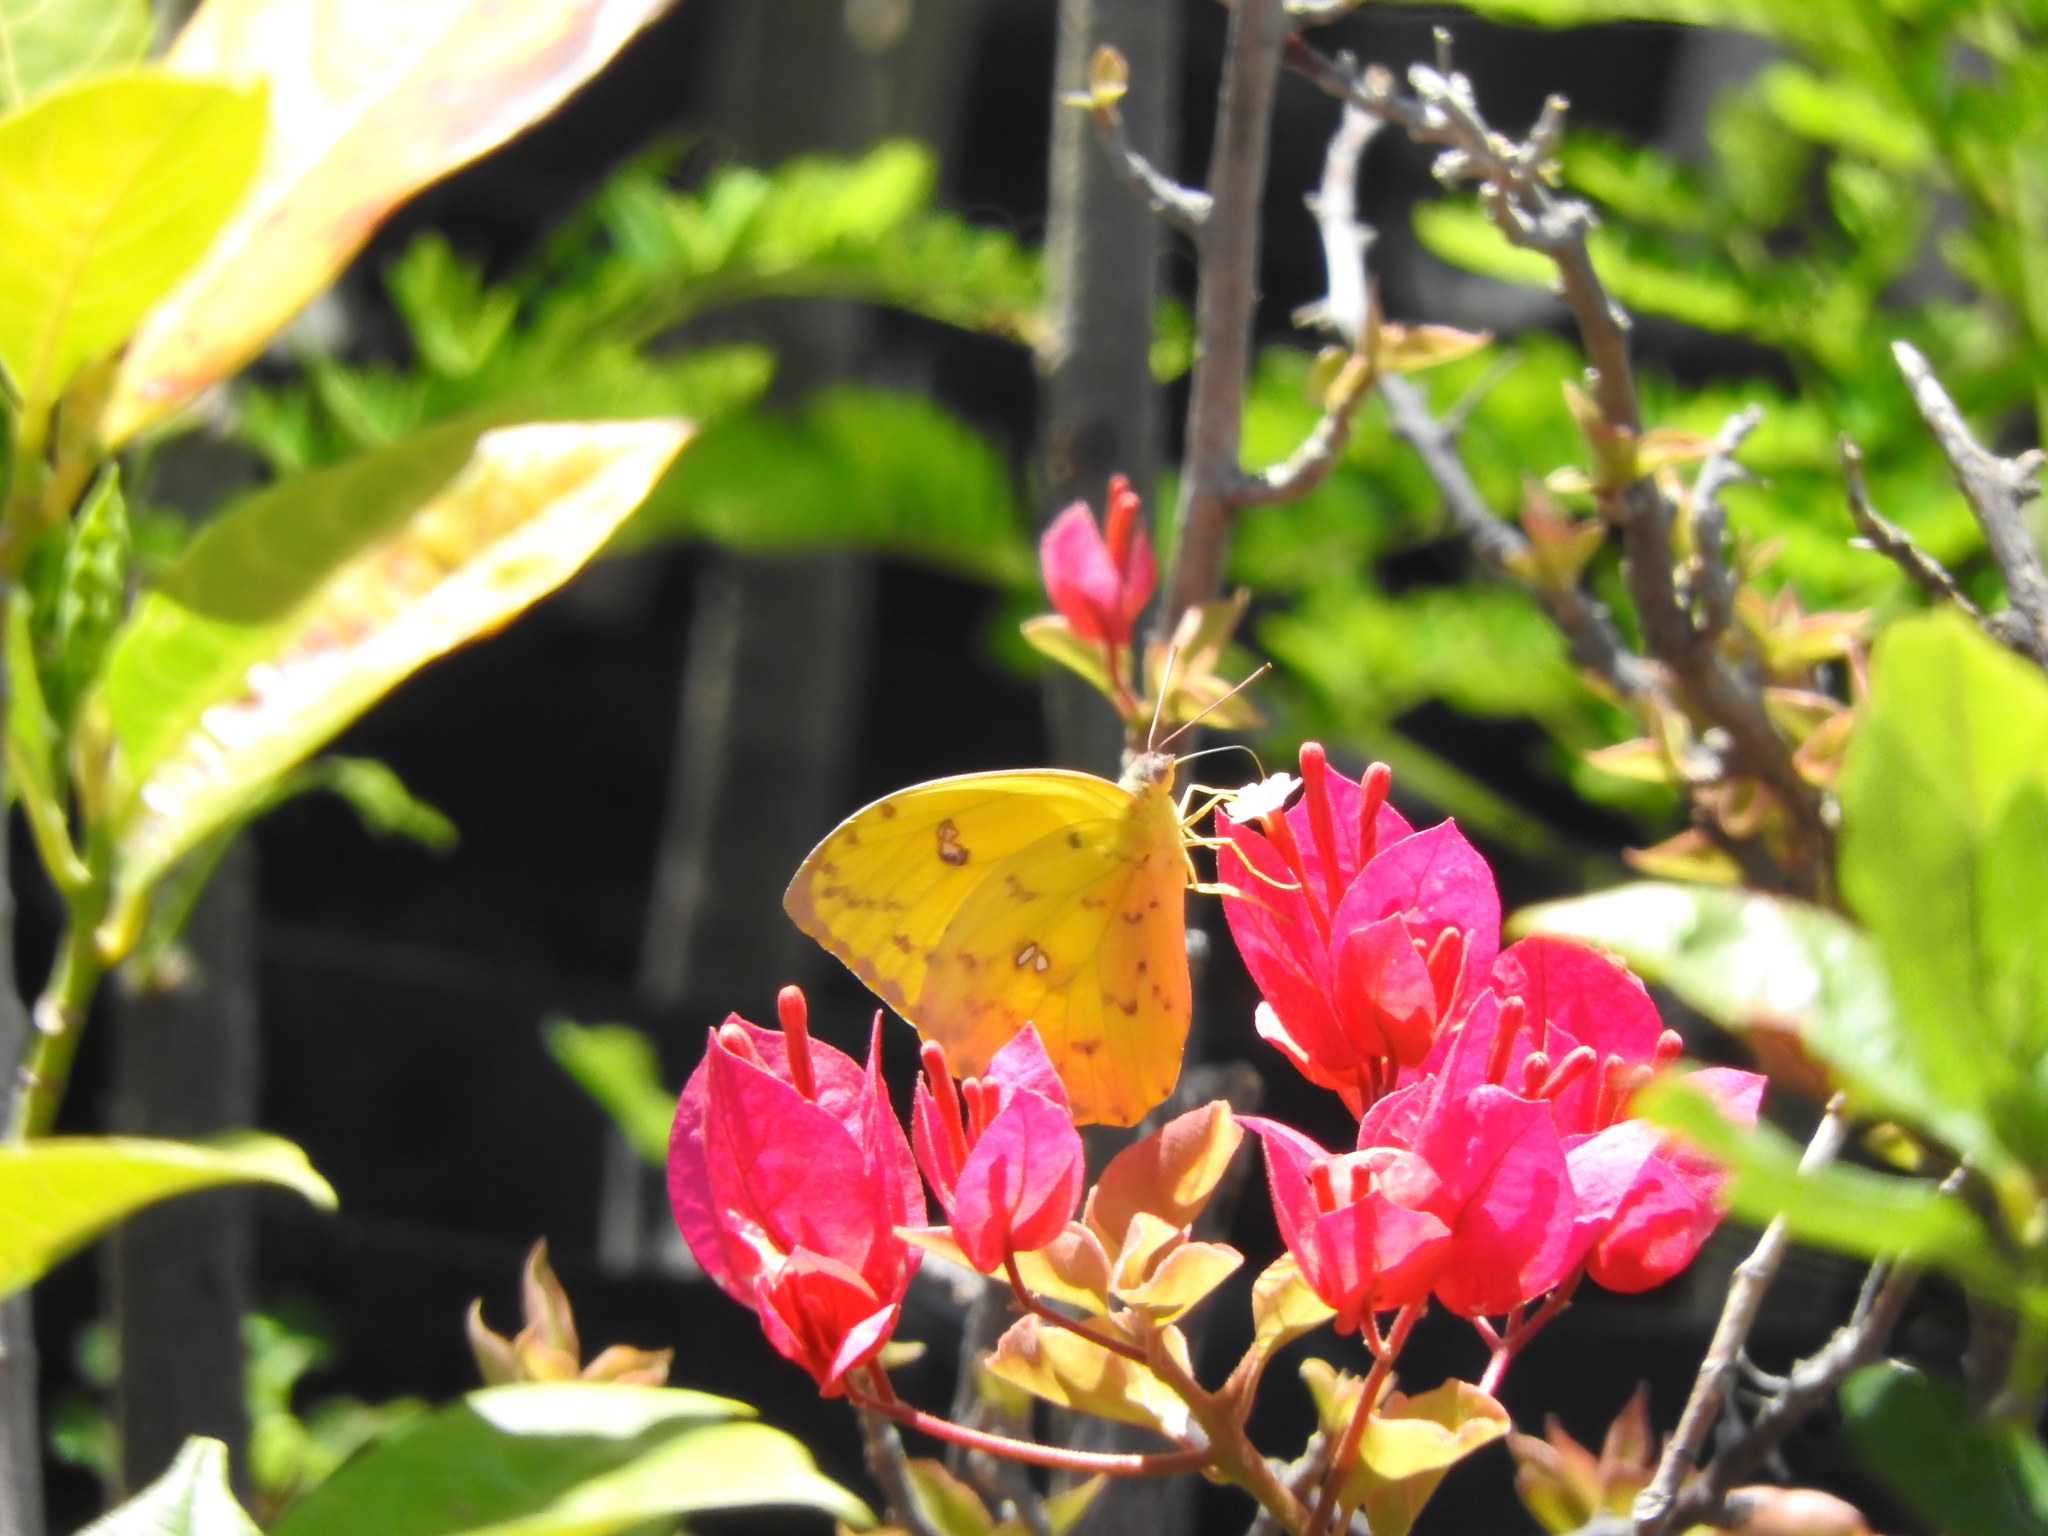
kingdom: Animalia
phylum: Arthropoda
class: Insecta
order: Lepidoptera
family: Pieridae
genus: Phoebis
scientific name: Phoebis philea
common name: Orange-barred giant sulphur
